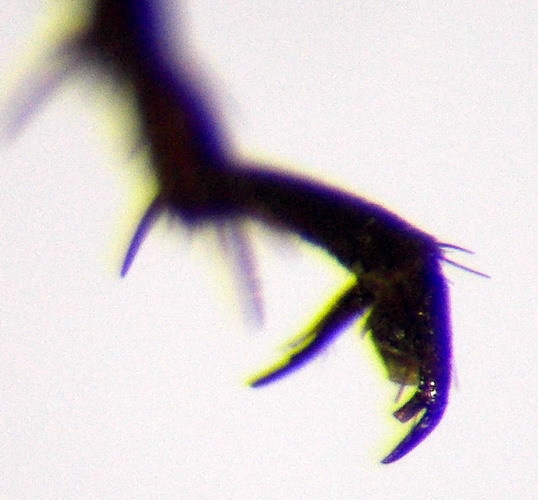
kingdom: Animalia
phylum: Arthropoda
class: Insecta
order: Hymenoptera
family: Pompilidae
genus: Telostegus
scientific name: Telostegus inermis
